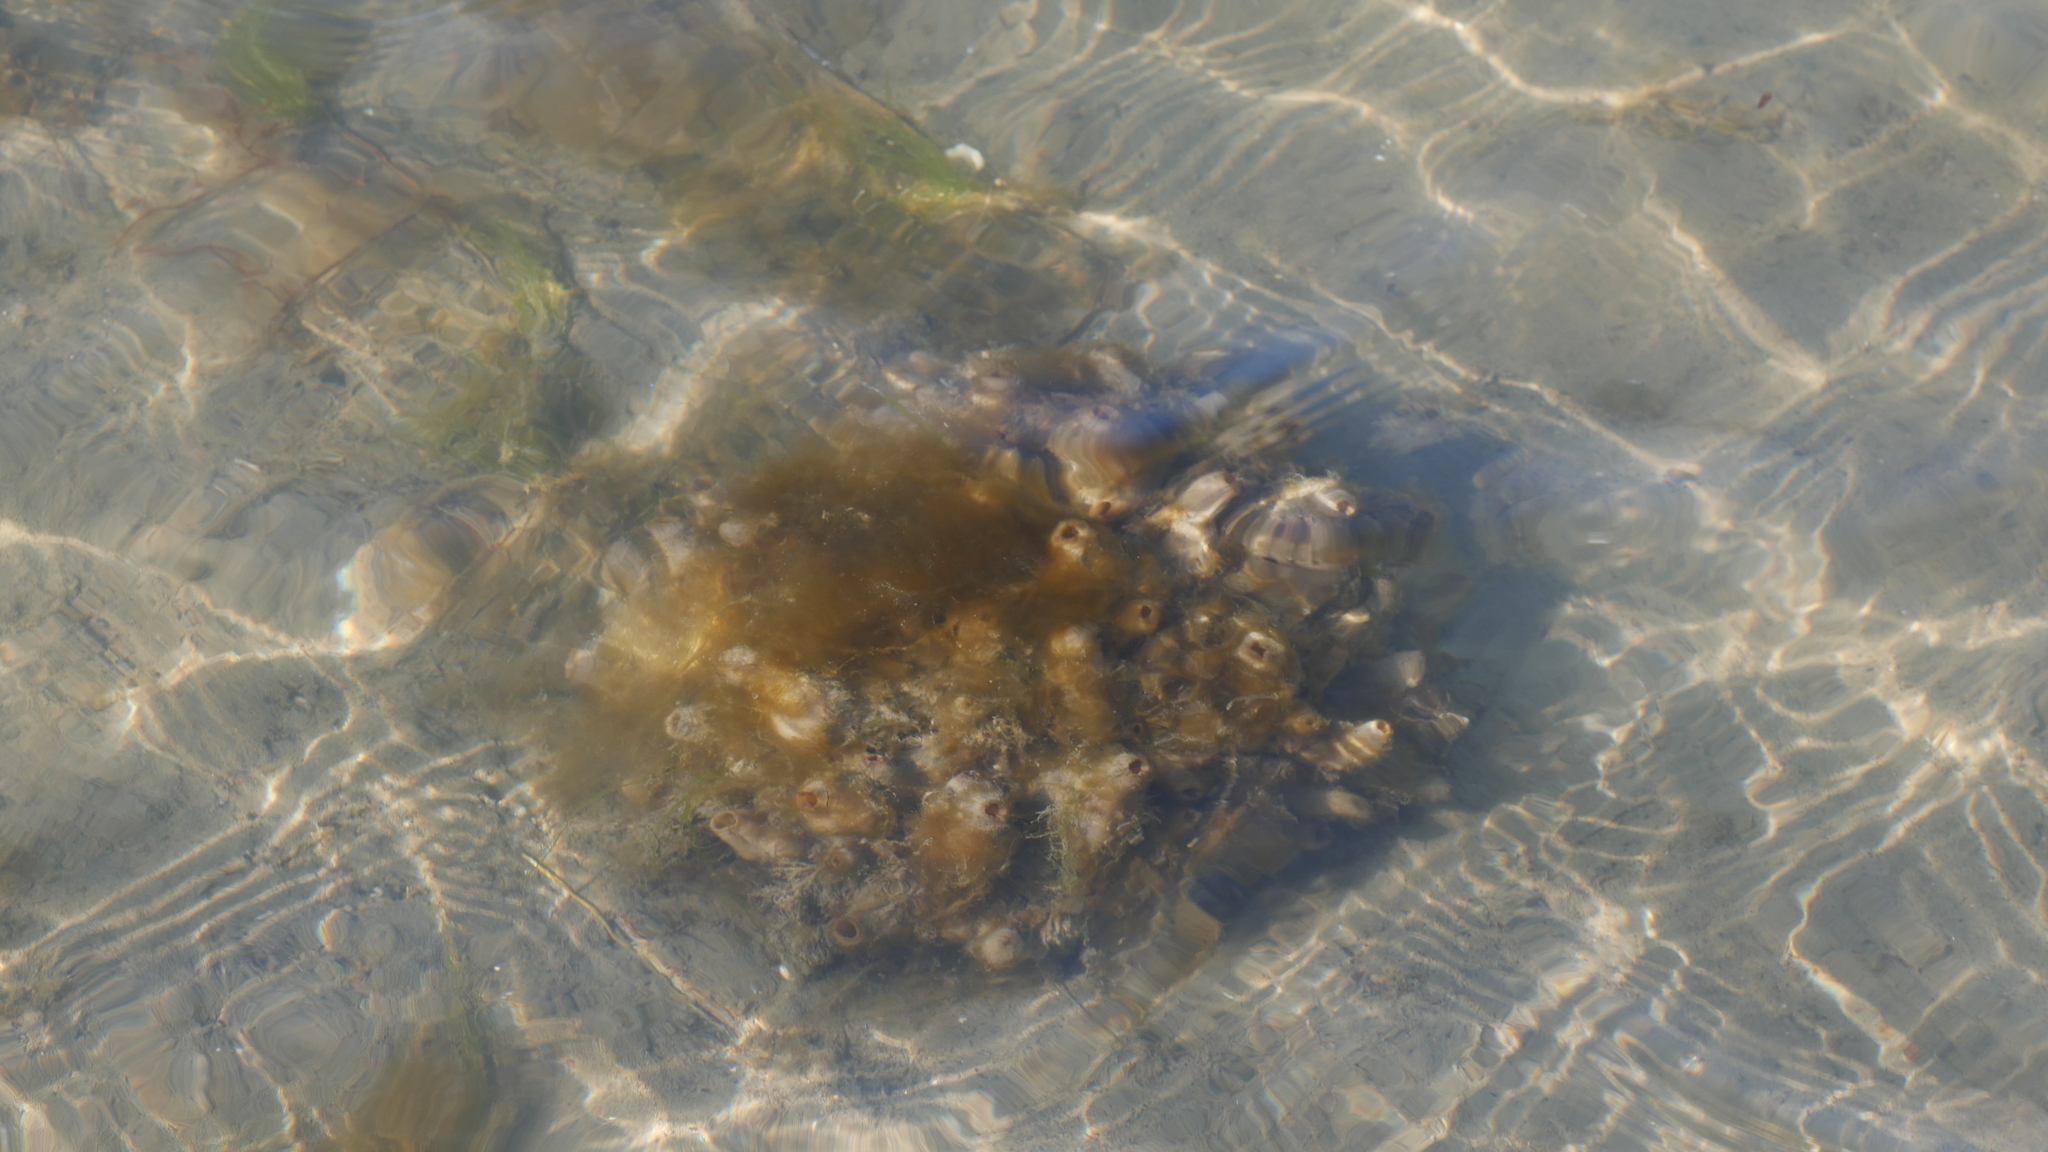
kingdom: Animalia
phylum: Chordata
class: Ascidiacea
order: Stolidobranchia
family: Styelidae
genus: Styela
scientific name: Styela plicata
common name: Pleated tunicate
